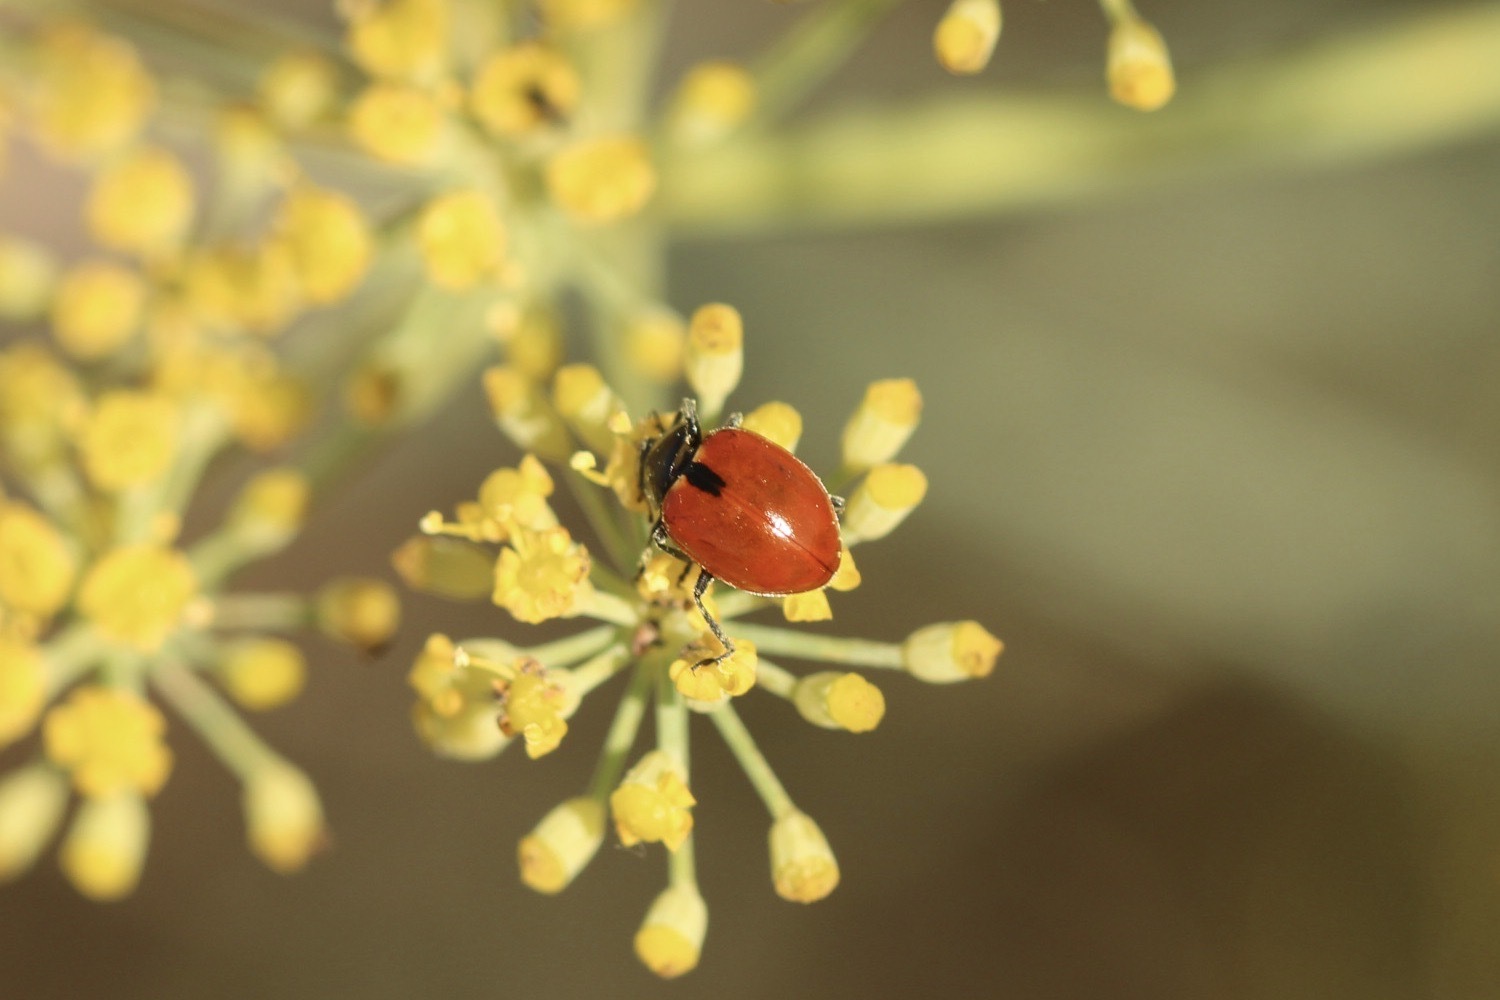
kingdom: Animalia
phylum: Arthropoda
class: Insecta
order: Coleoptera
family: Coccinellidae
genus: Hippodamia
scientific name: Hippodamia quinquesignata
